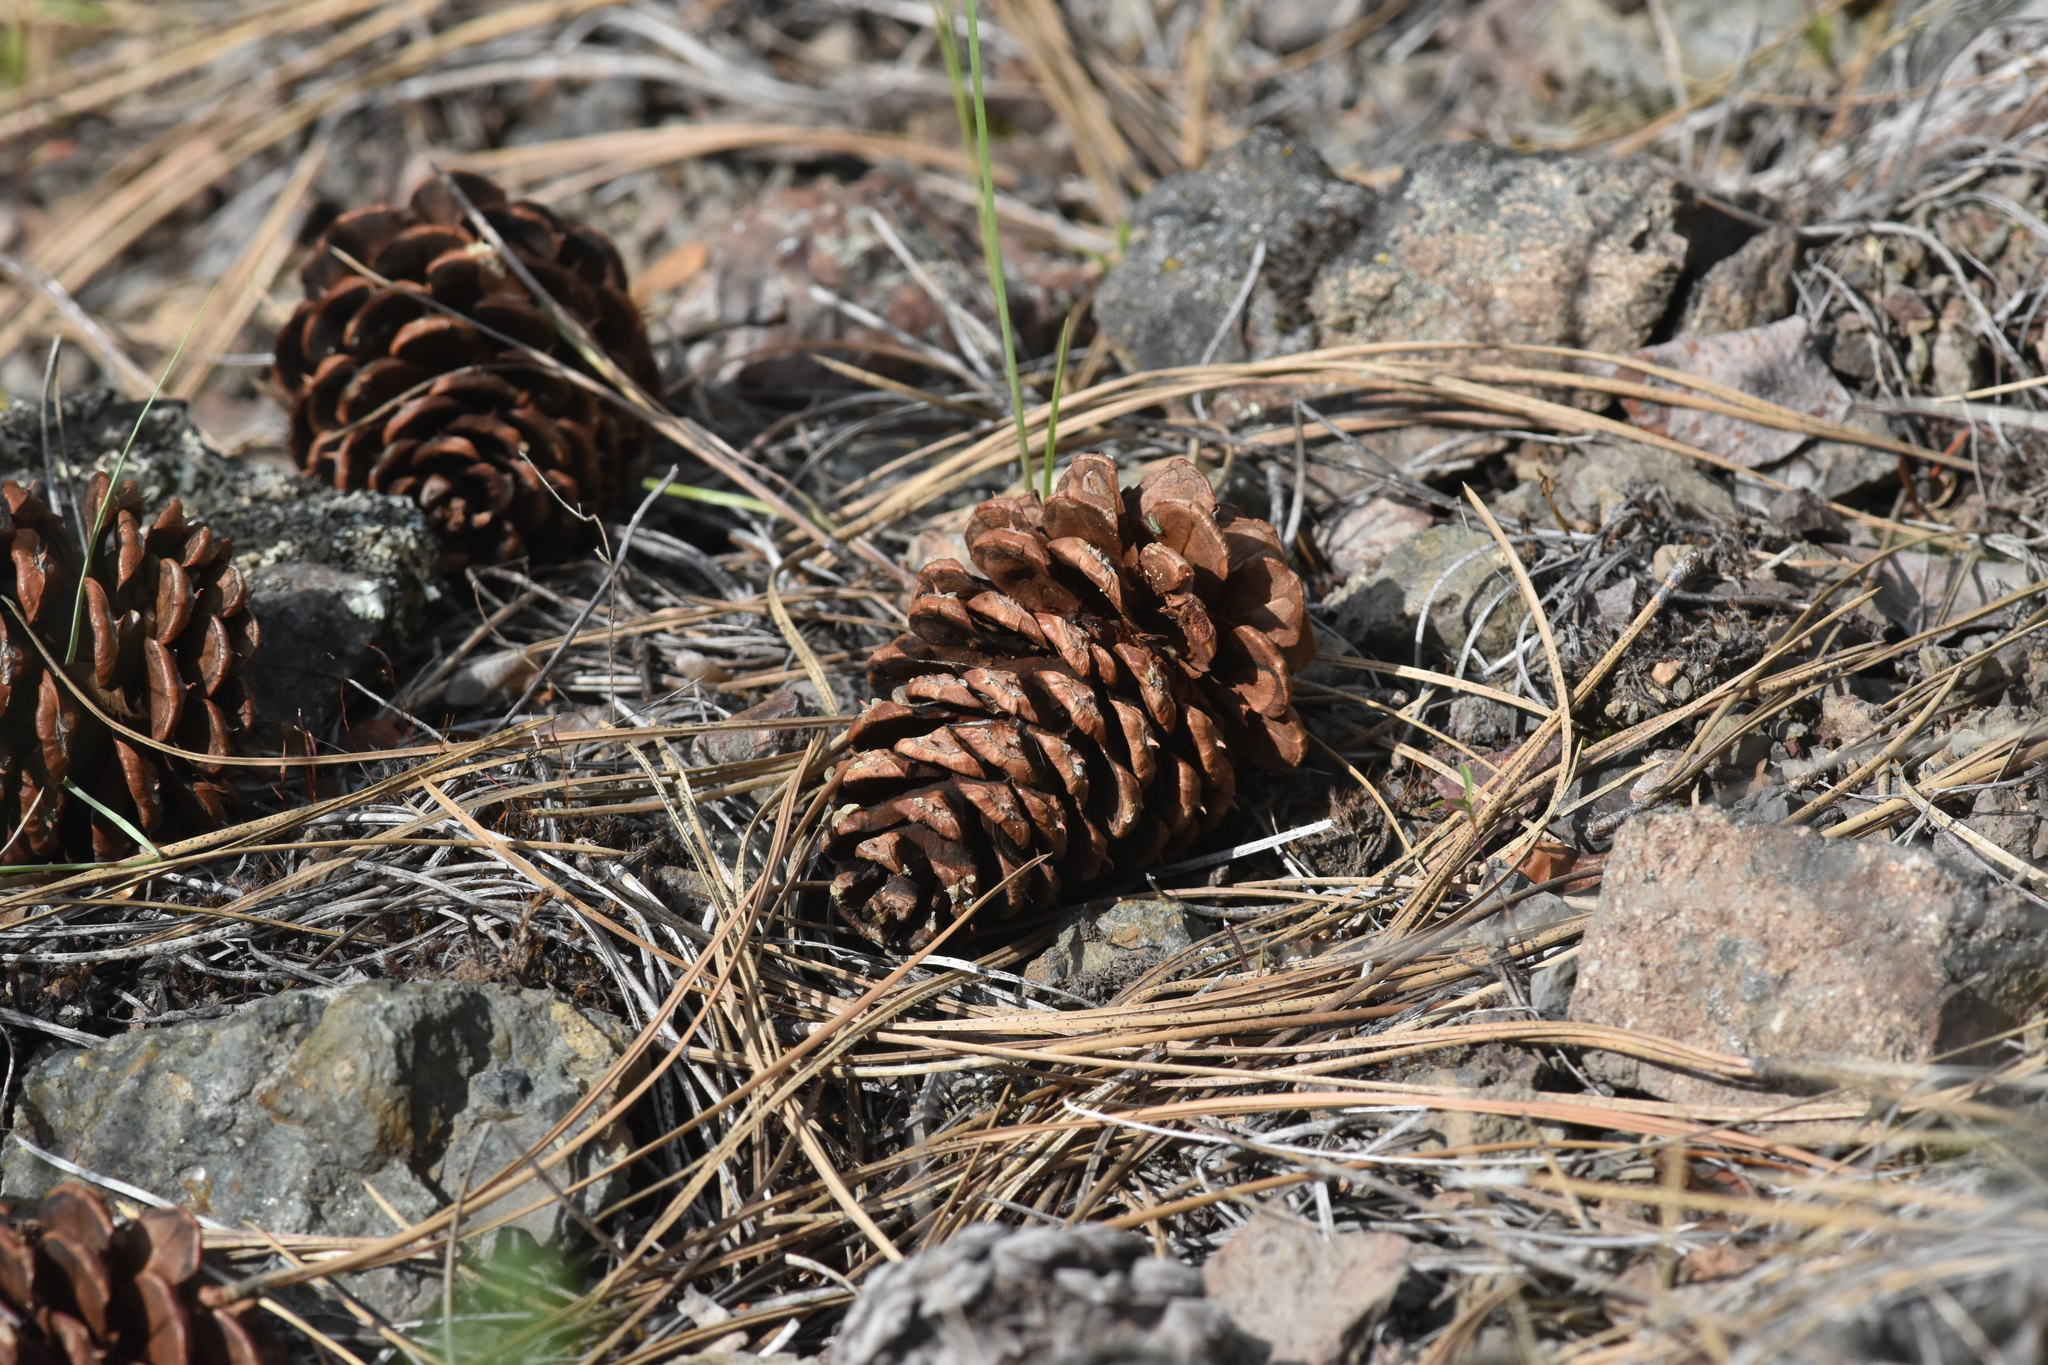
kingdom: Plantae
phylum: Tracheophyta
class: Pinopsida
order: Pinales
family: Pinaceae
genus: Pinus
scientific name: Pinus ponderosa
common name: Western yellow-pine
